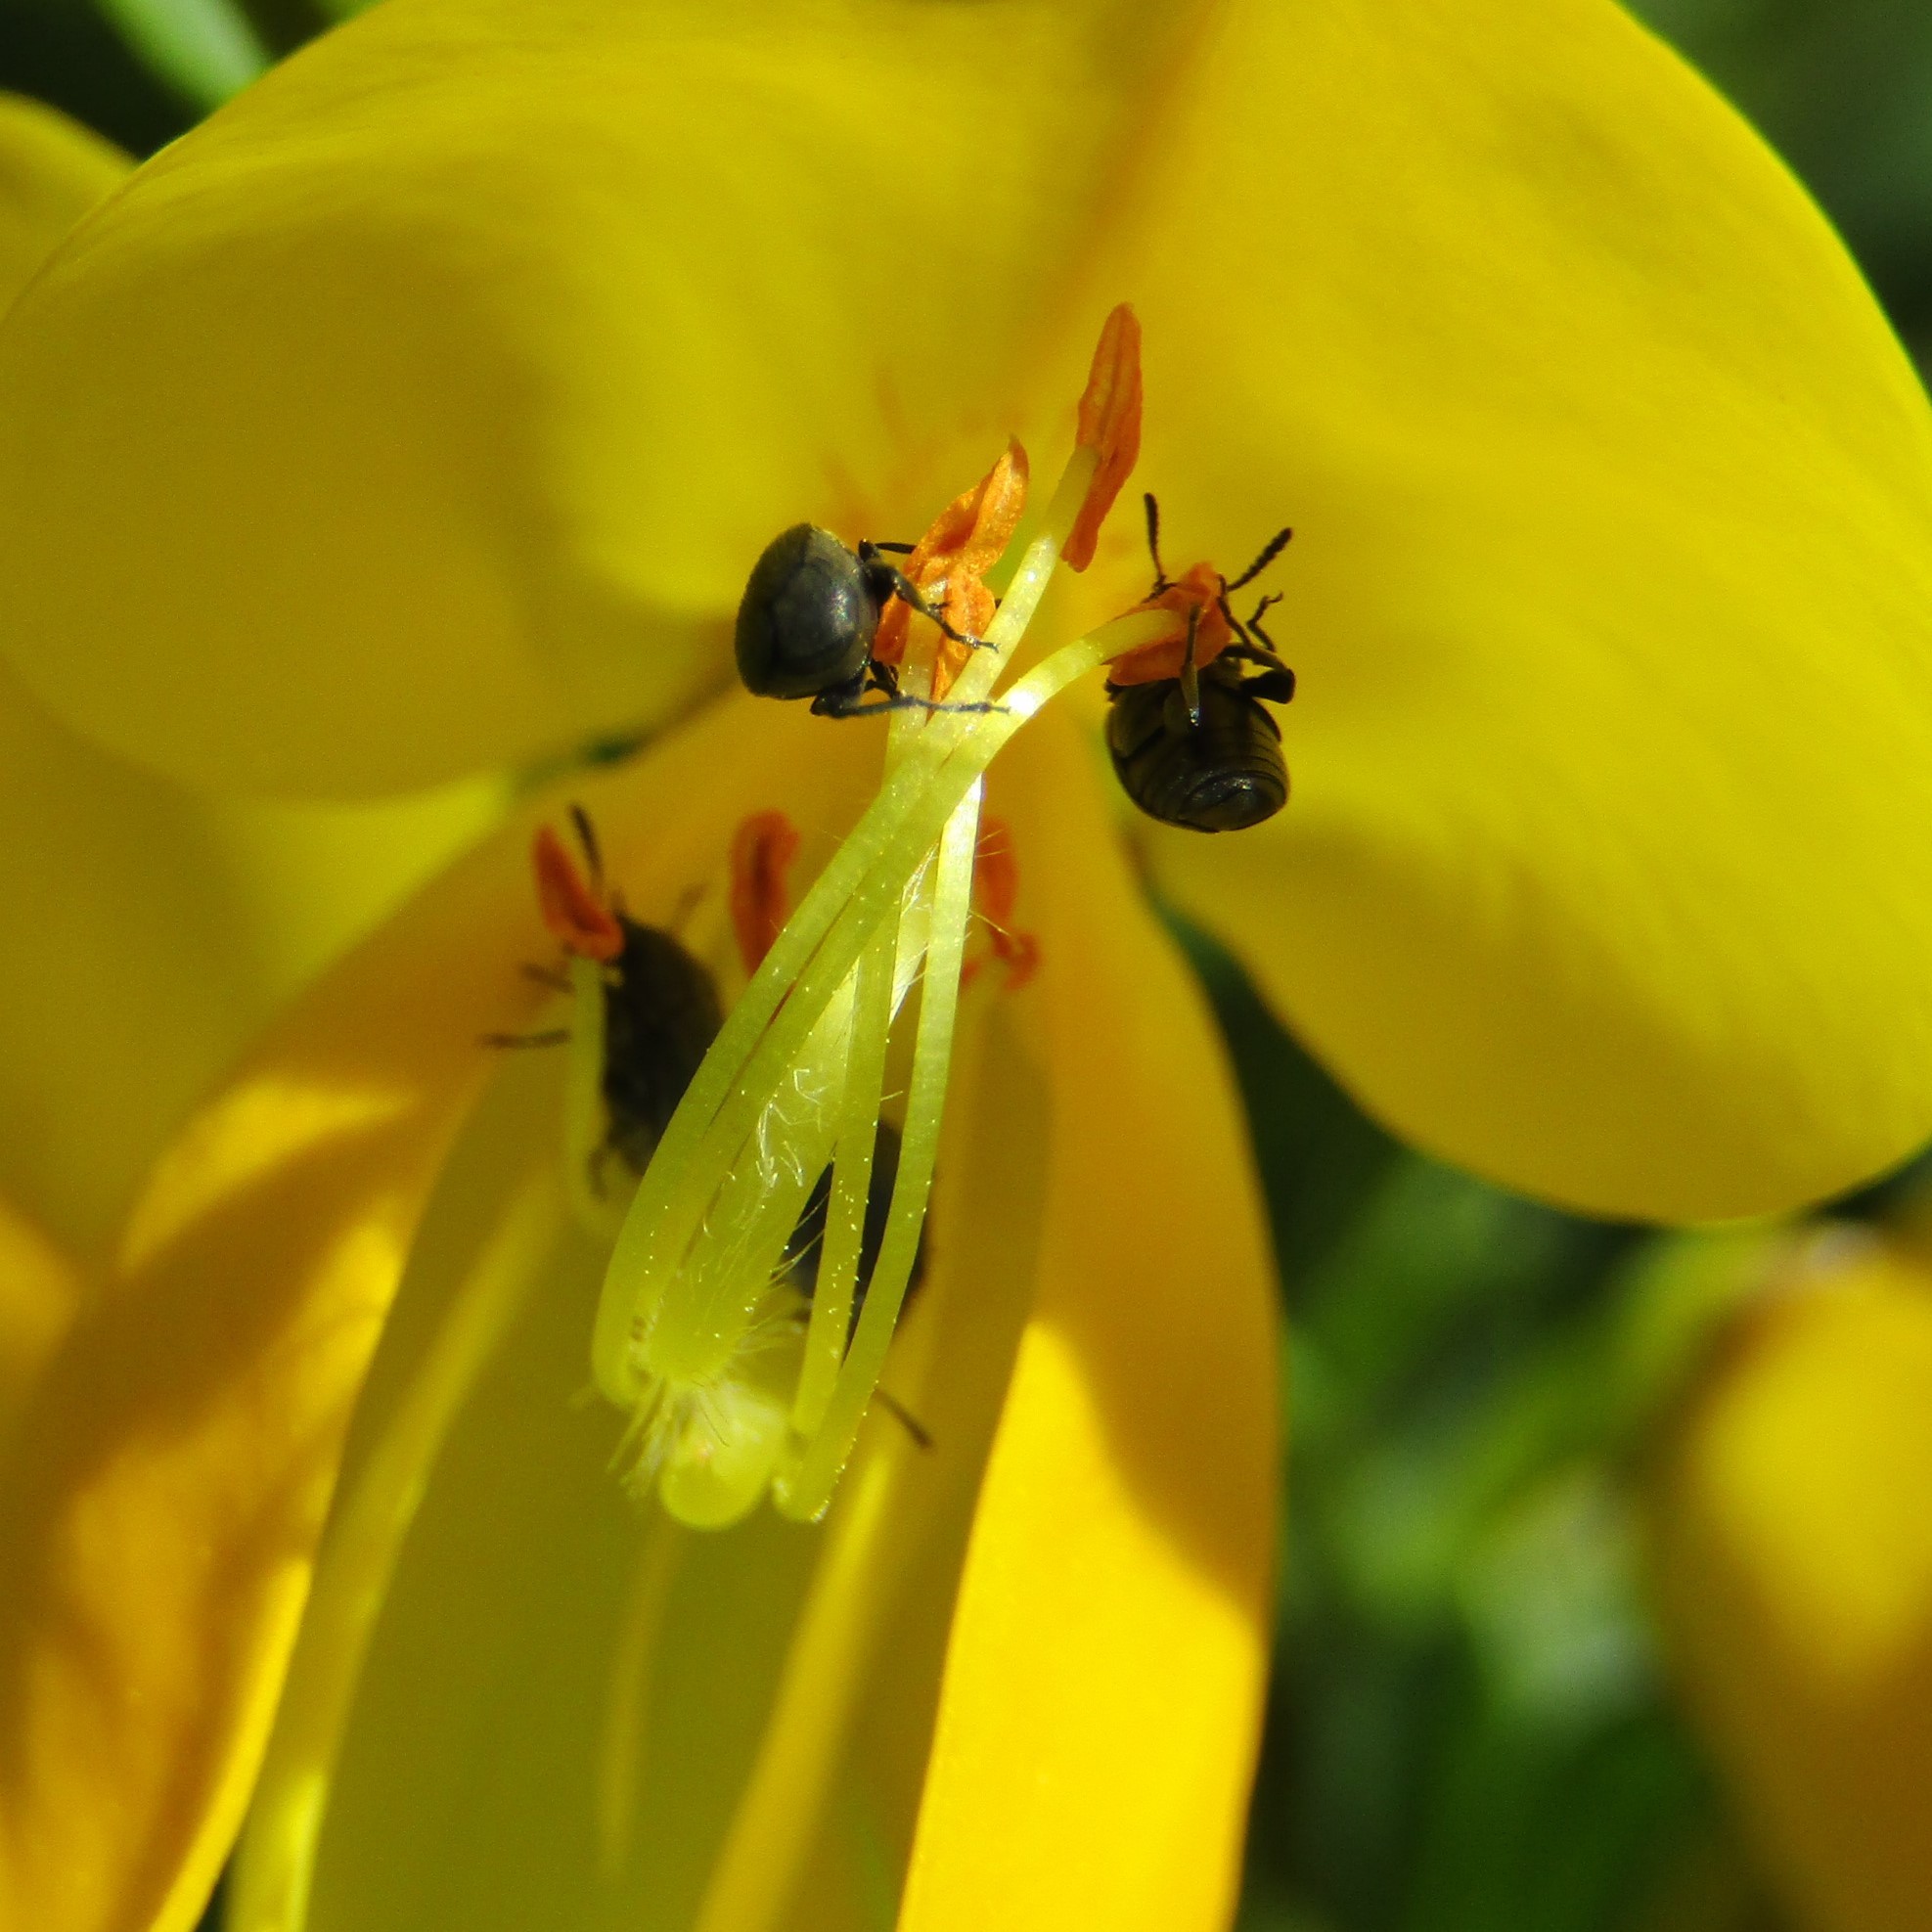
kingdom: Plantae
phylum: Tracheophyta
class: Magnoliopsida
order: Fabales
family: Fabaceae
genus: Cytisus
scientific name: Cytisus scoparius
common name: Scotch broom
